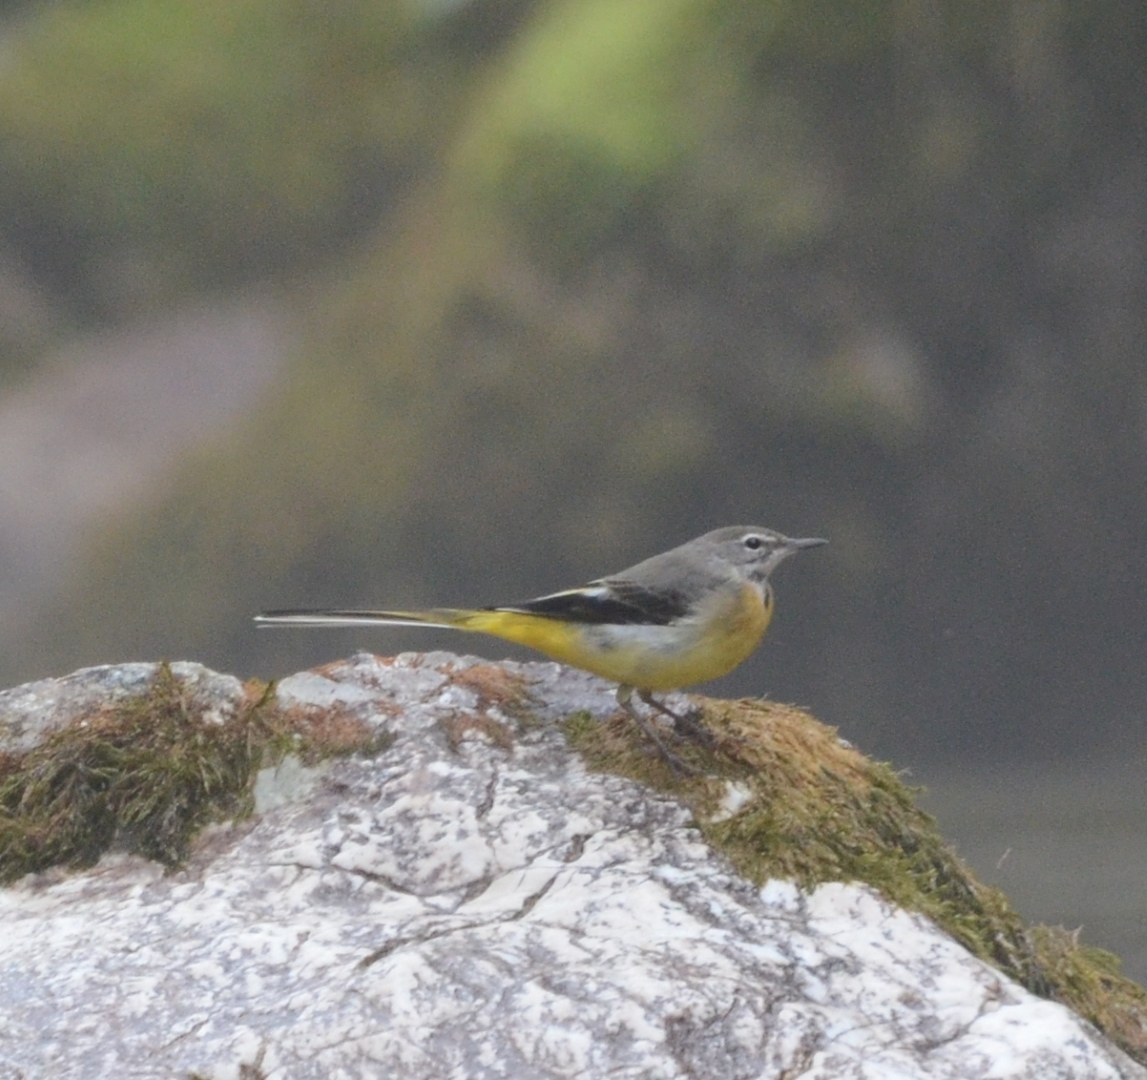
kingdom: Animalia
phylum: Chordata
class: Aves
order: Passeriformes
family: Motacillidae
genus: Motacilla
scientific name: Motacilla cinerea
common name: Grey wagtail
